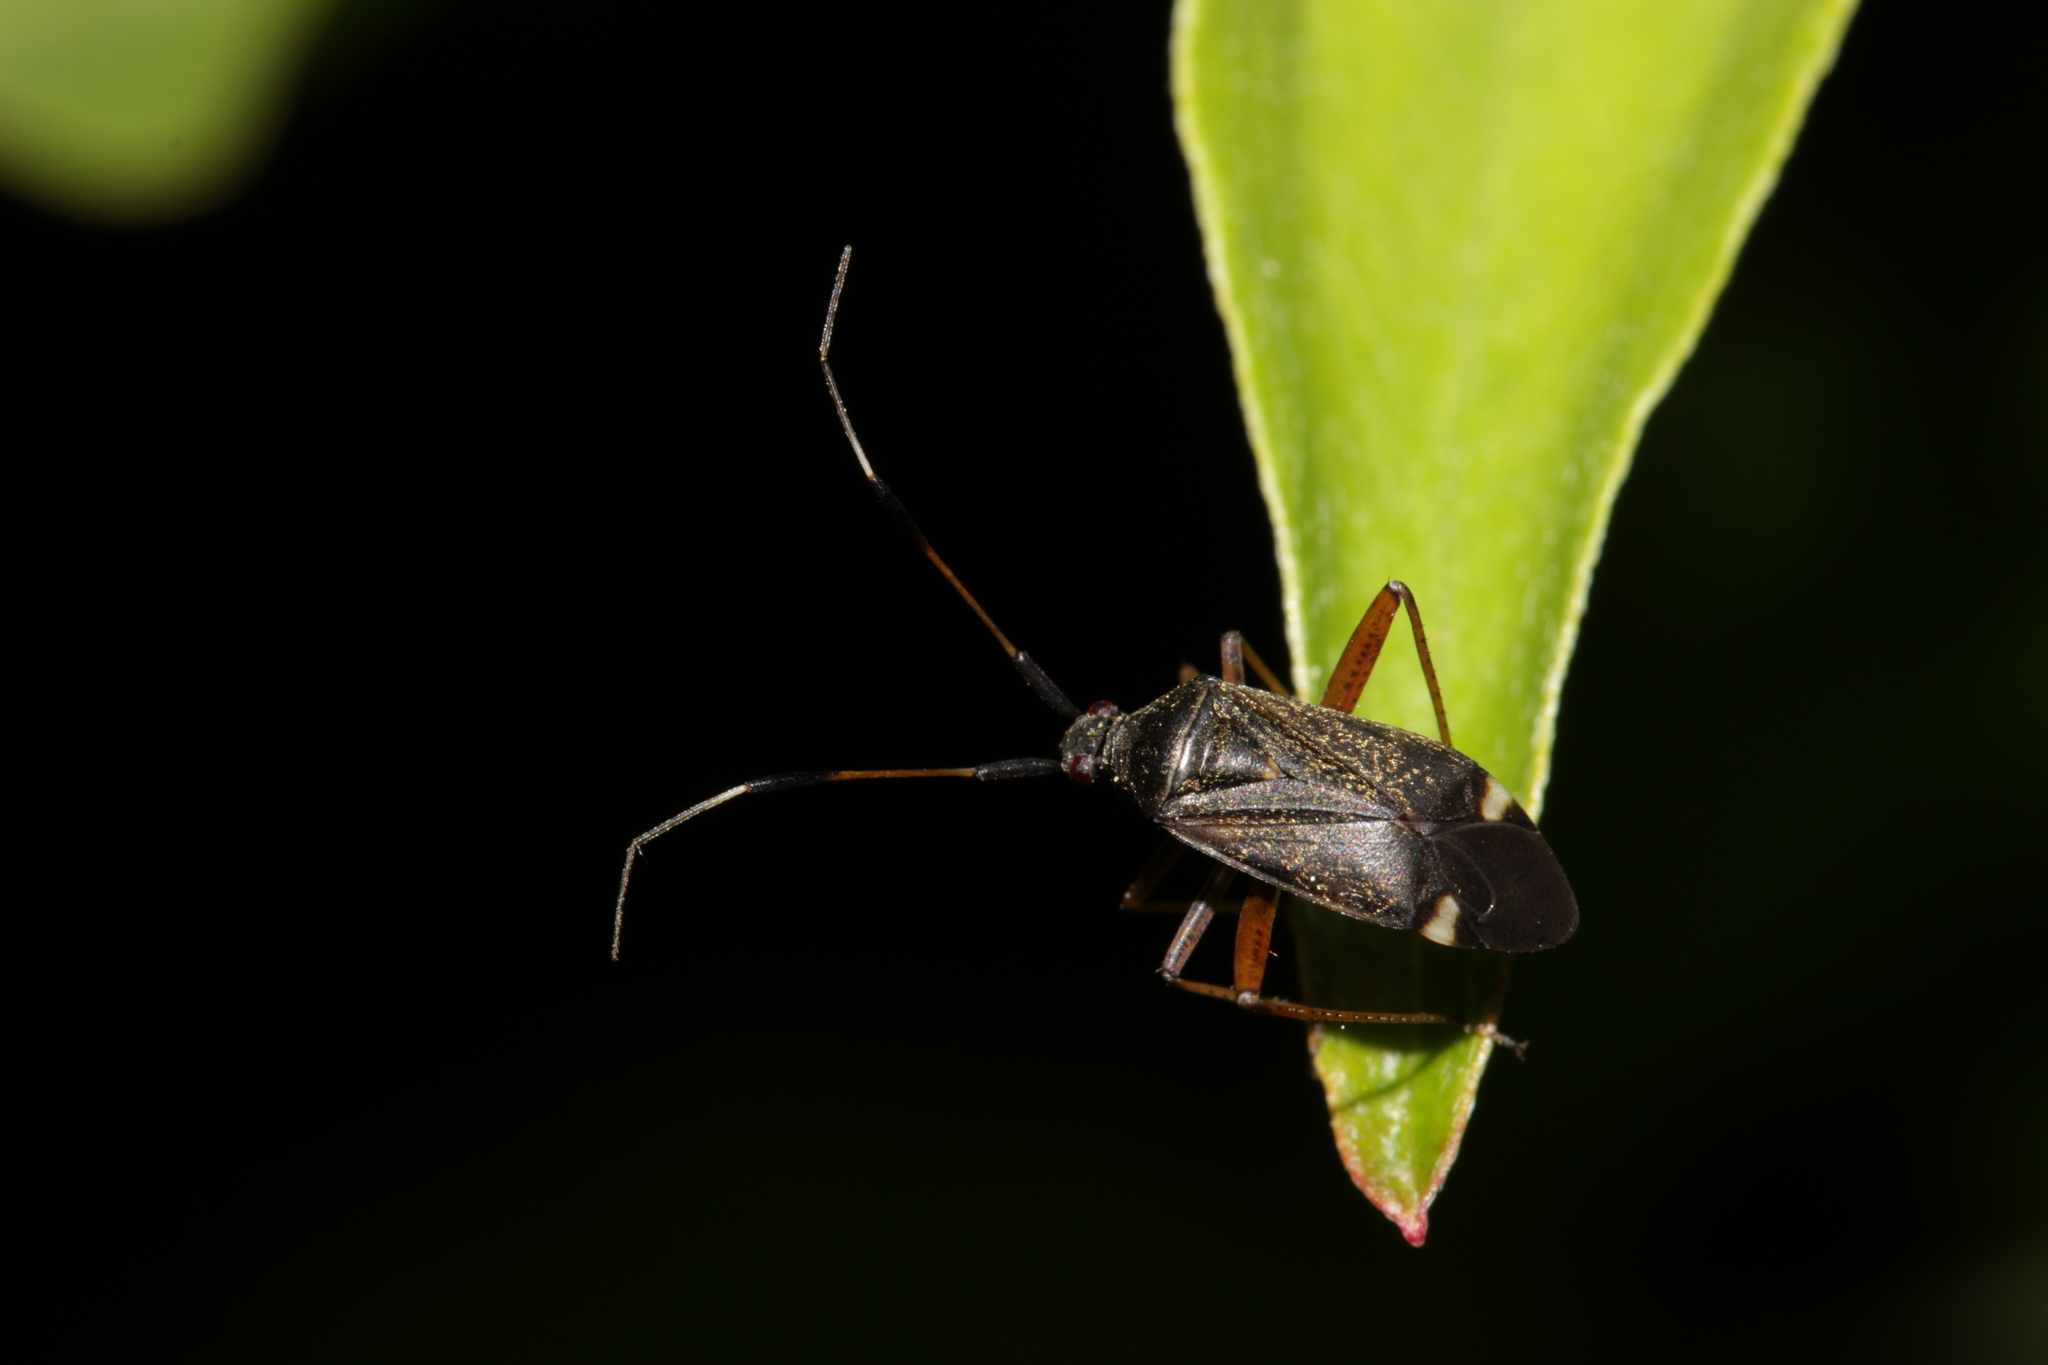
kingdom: Animalia
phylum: Arthropoda
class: Insecta
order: Hemiptera
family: Miridae
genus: Closterotomus
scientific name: Closterotomus biclavatus
